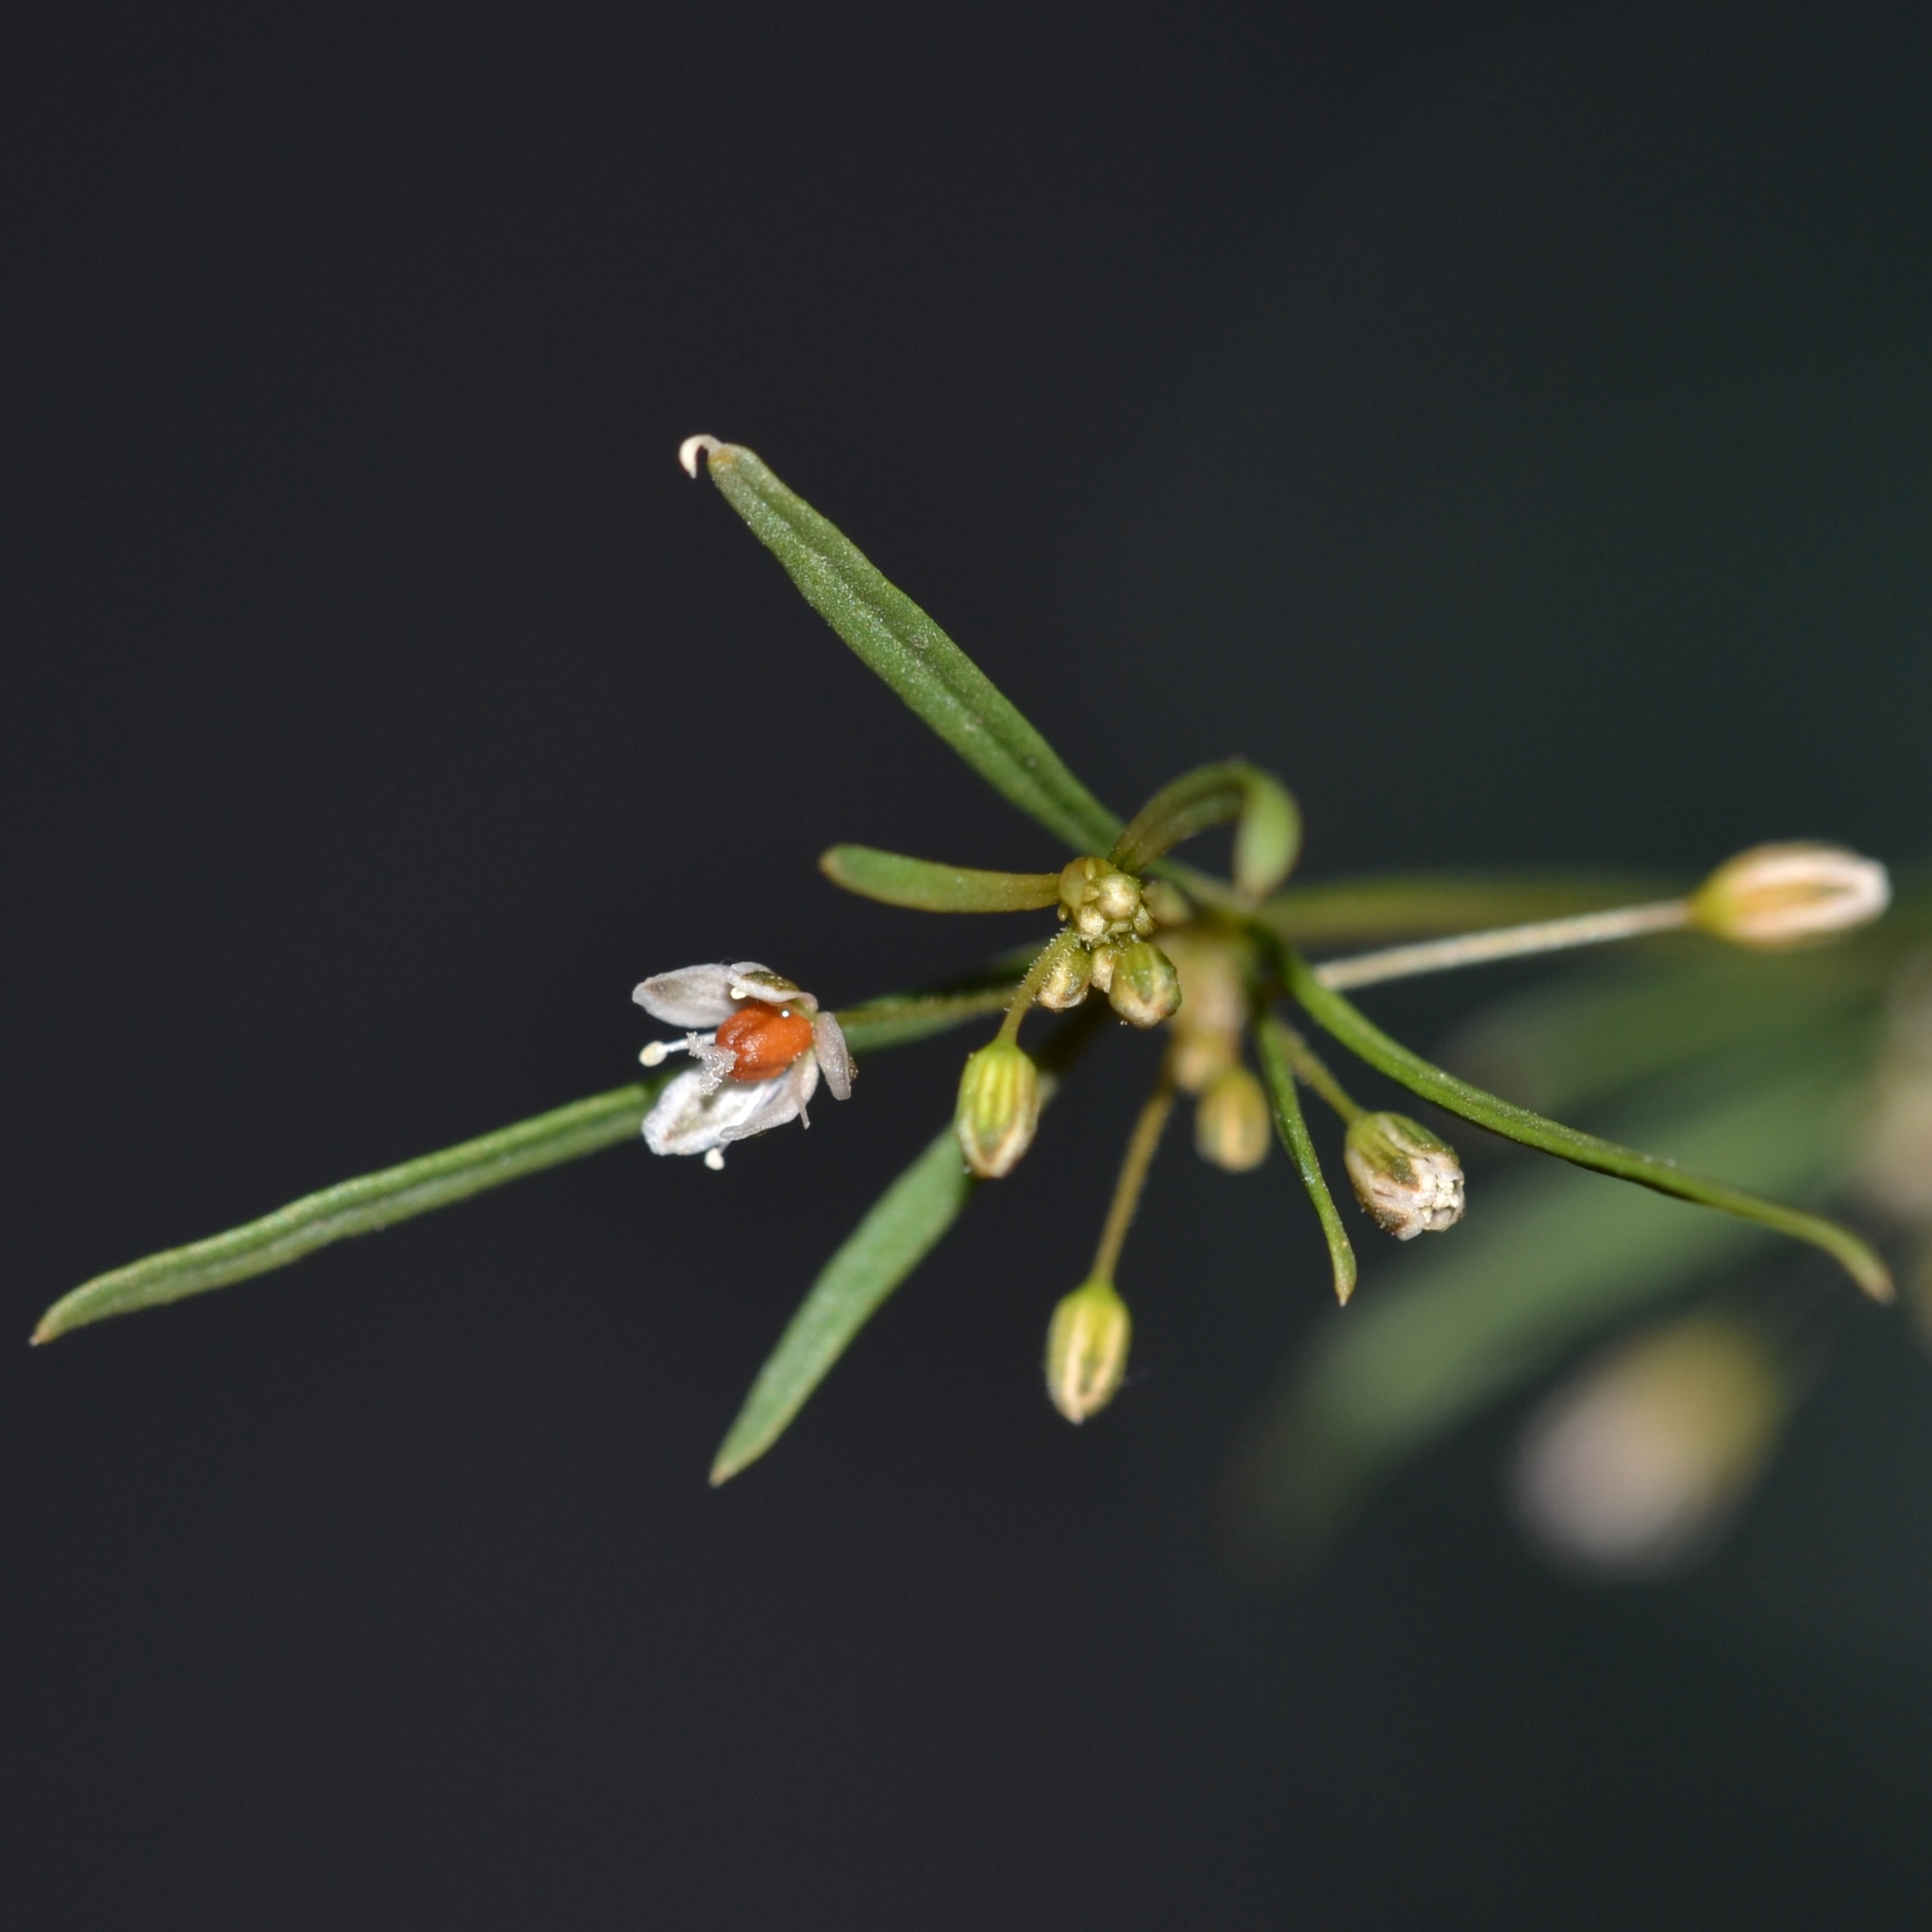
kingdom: Plantae
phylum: Tracheophyta
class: Magnoliopsida
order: Caryophyllales
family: Molluginaceae
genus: Mollugo
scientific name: Mollugo verticillata
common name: Green carpetweed
